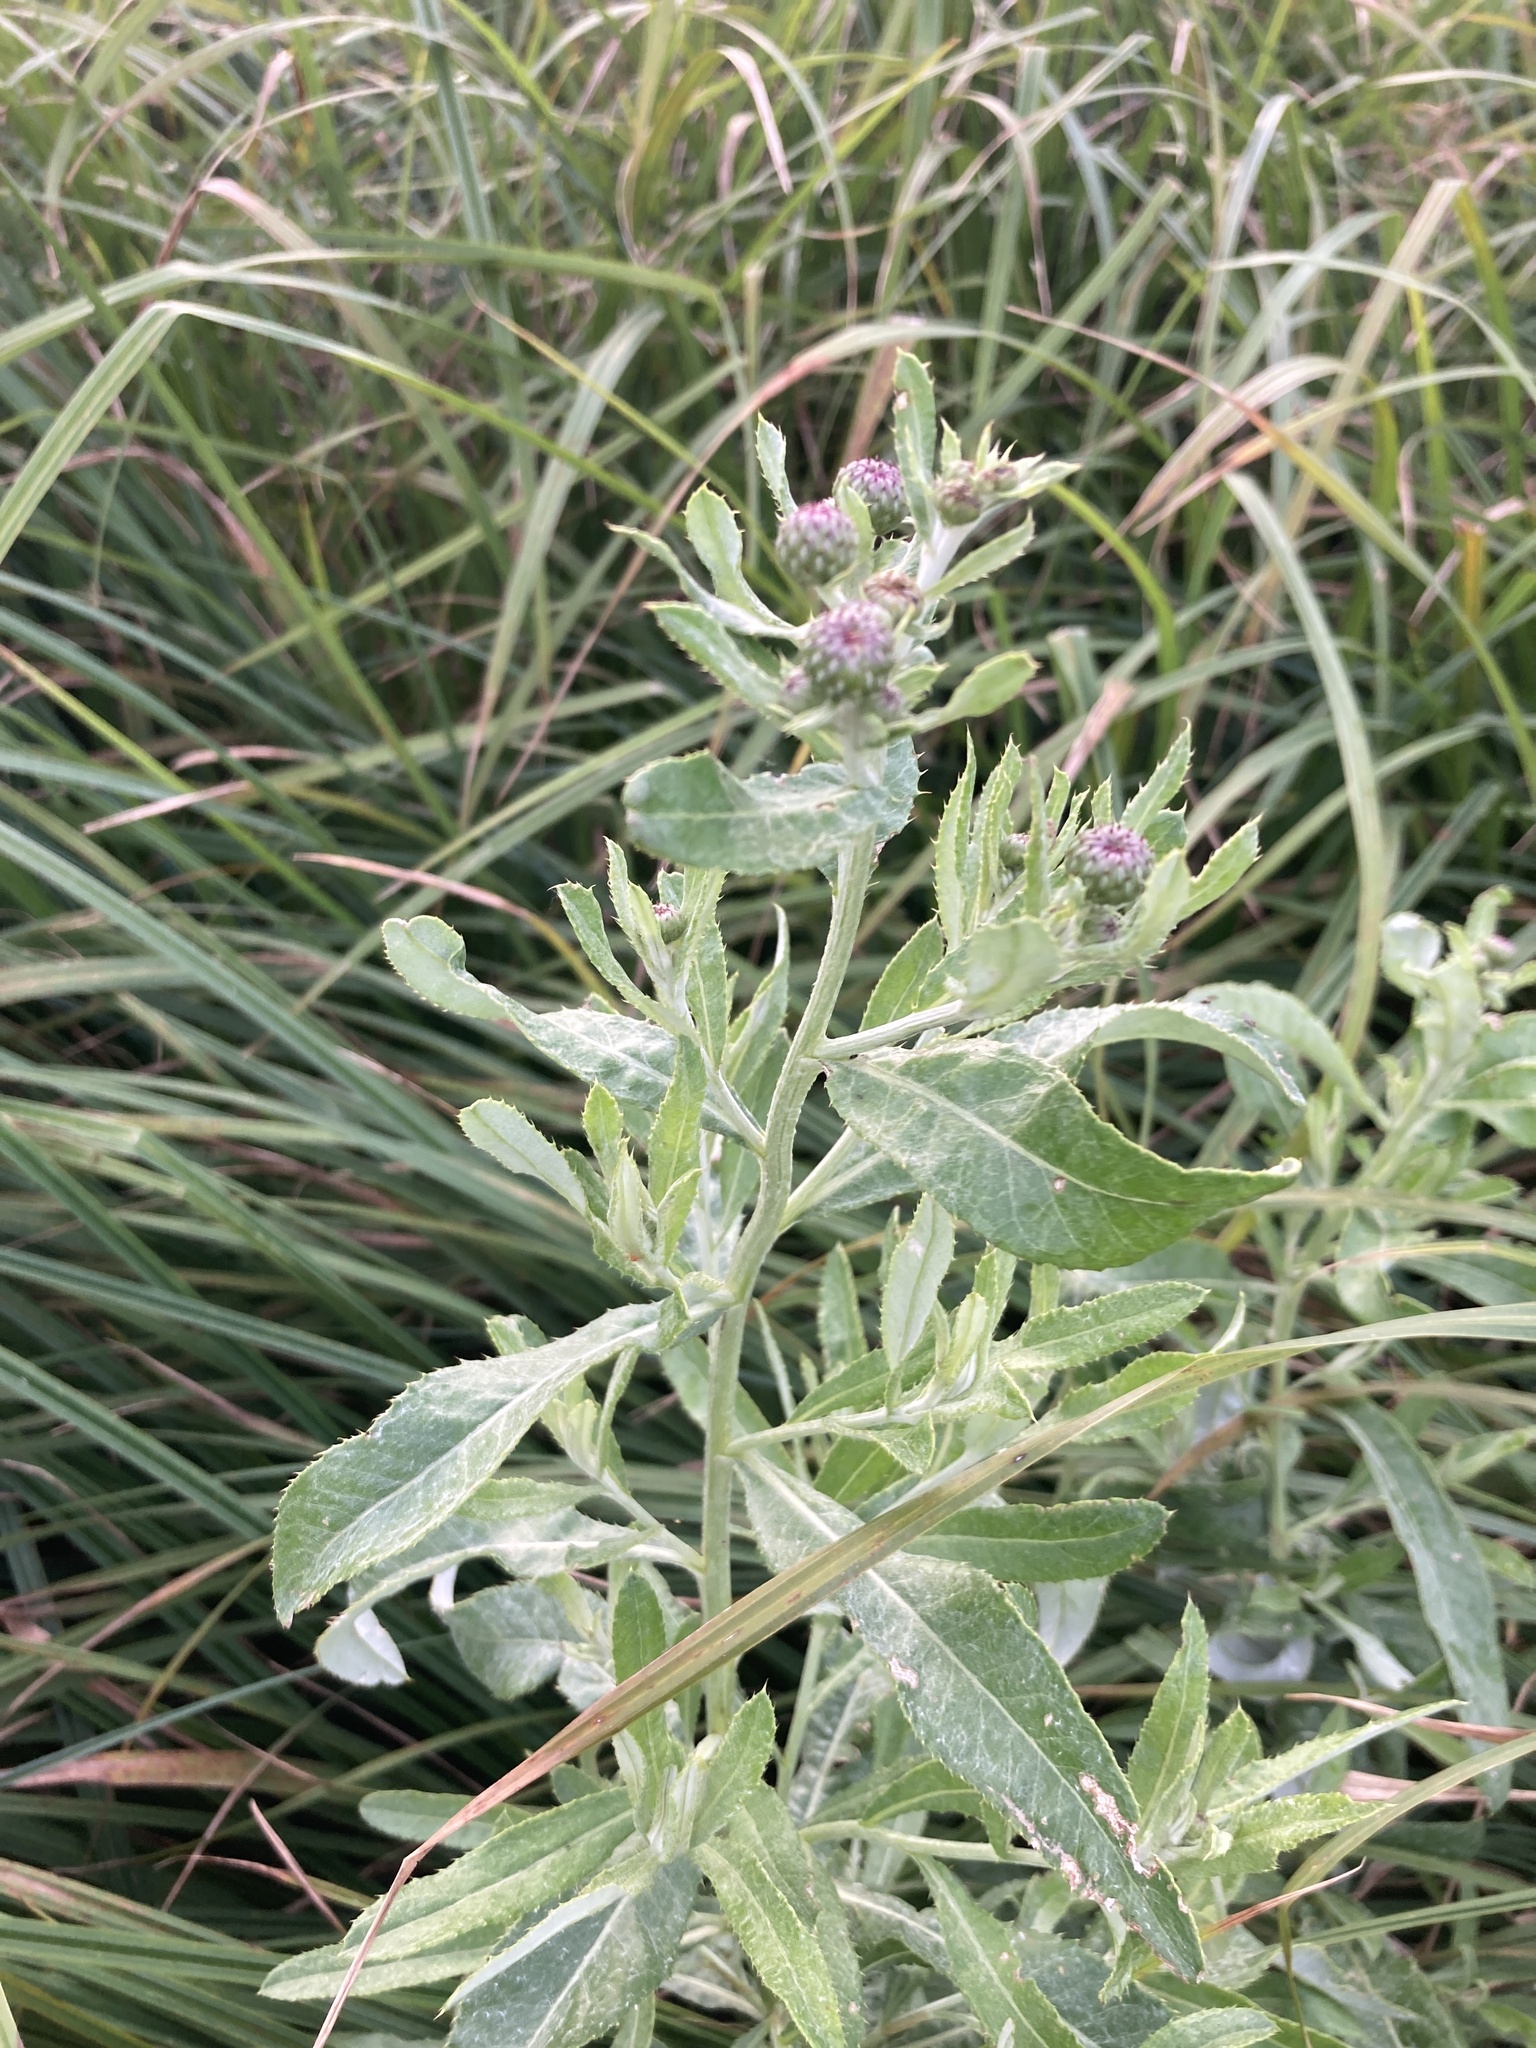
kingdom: Plantae
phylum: Tracheophyta
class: Magnoliopsida
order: Asterales
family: Asteraceae
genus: Cirsium
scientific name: Cirsium arvense
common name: Creeping thistle
